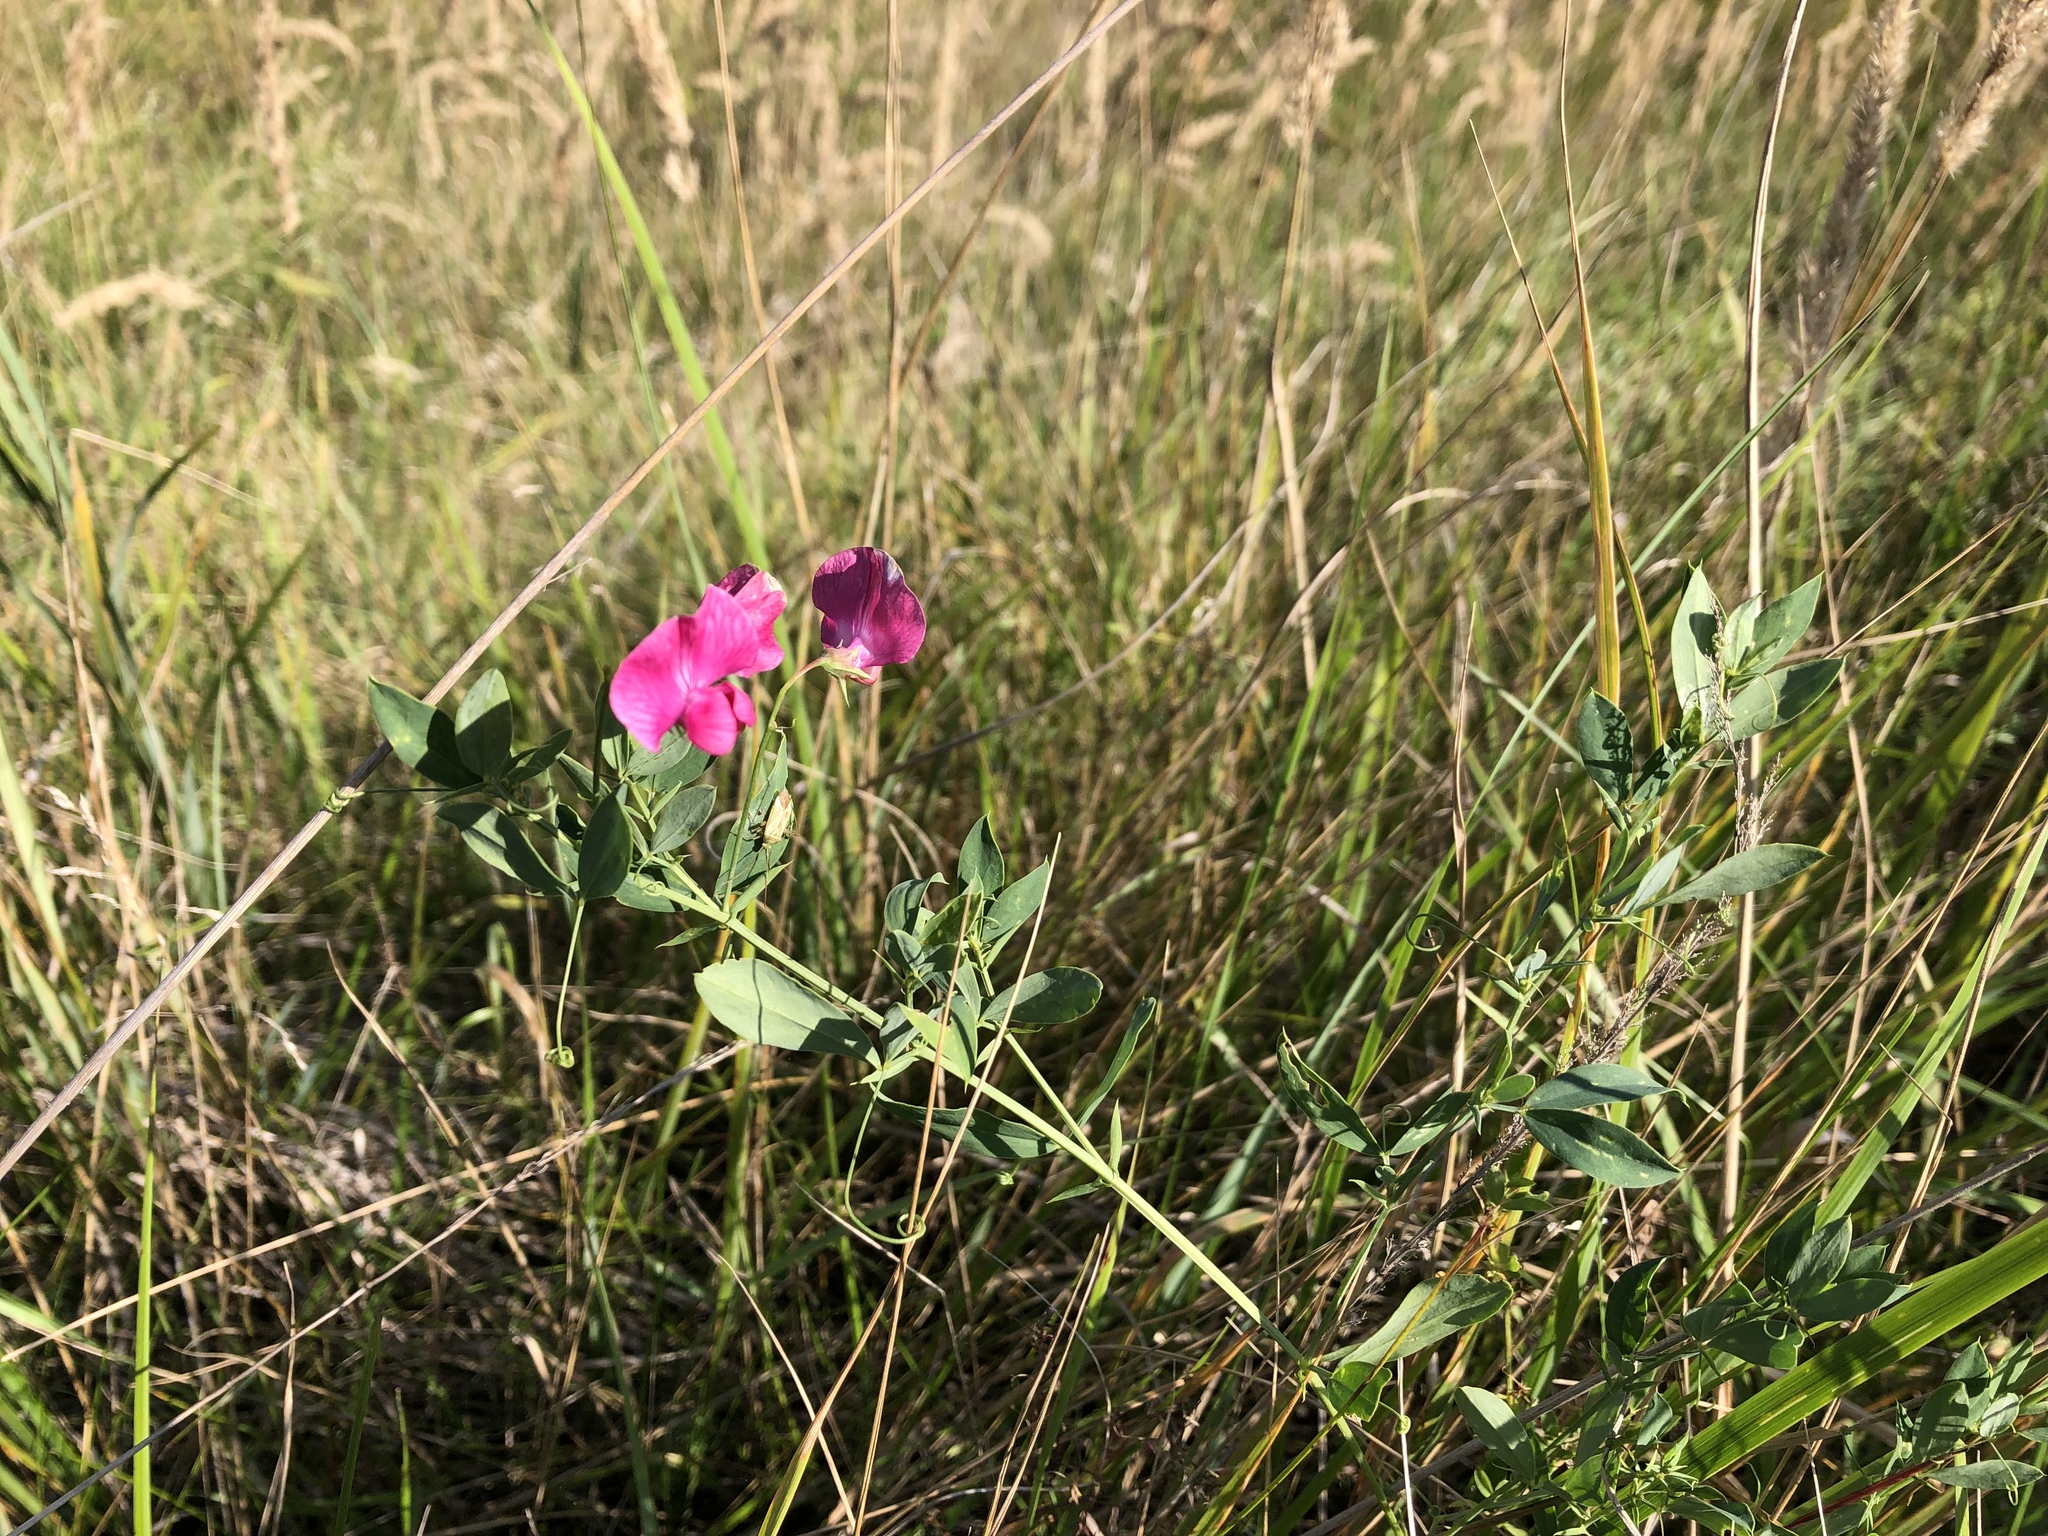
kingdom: Plantae
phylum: Tracheophyta
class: Magnoliopsida
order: Fabales
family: Fabaceae
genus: Lathyrus
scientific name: Lathyrus tuberosus
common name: Tuberous pea
